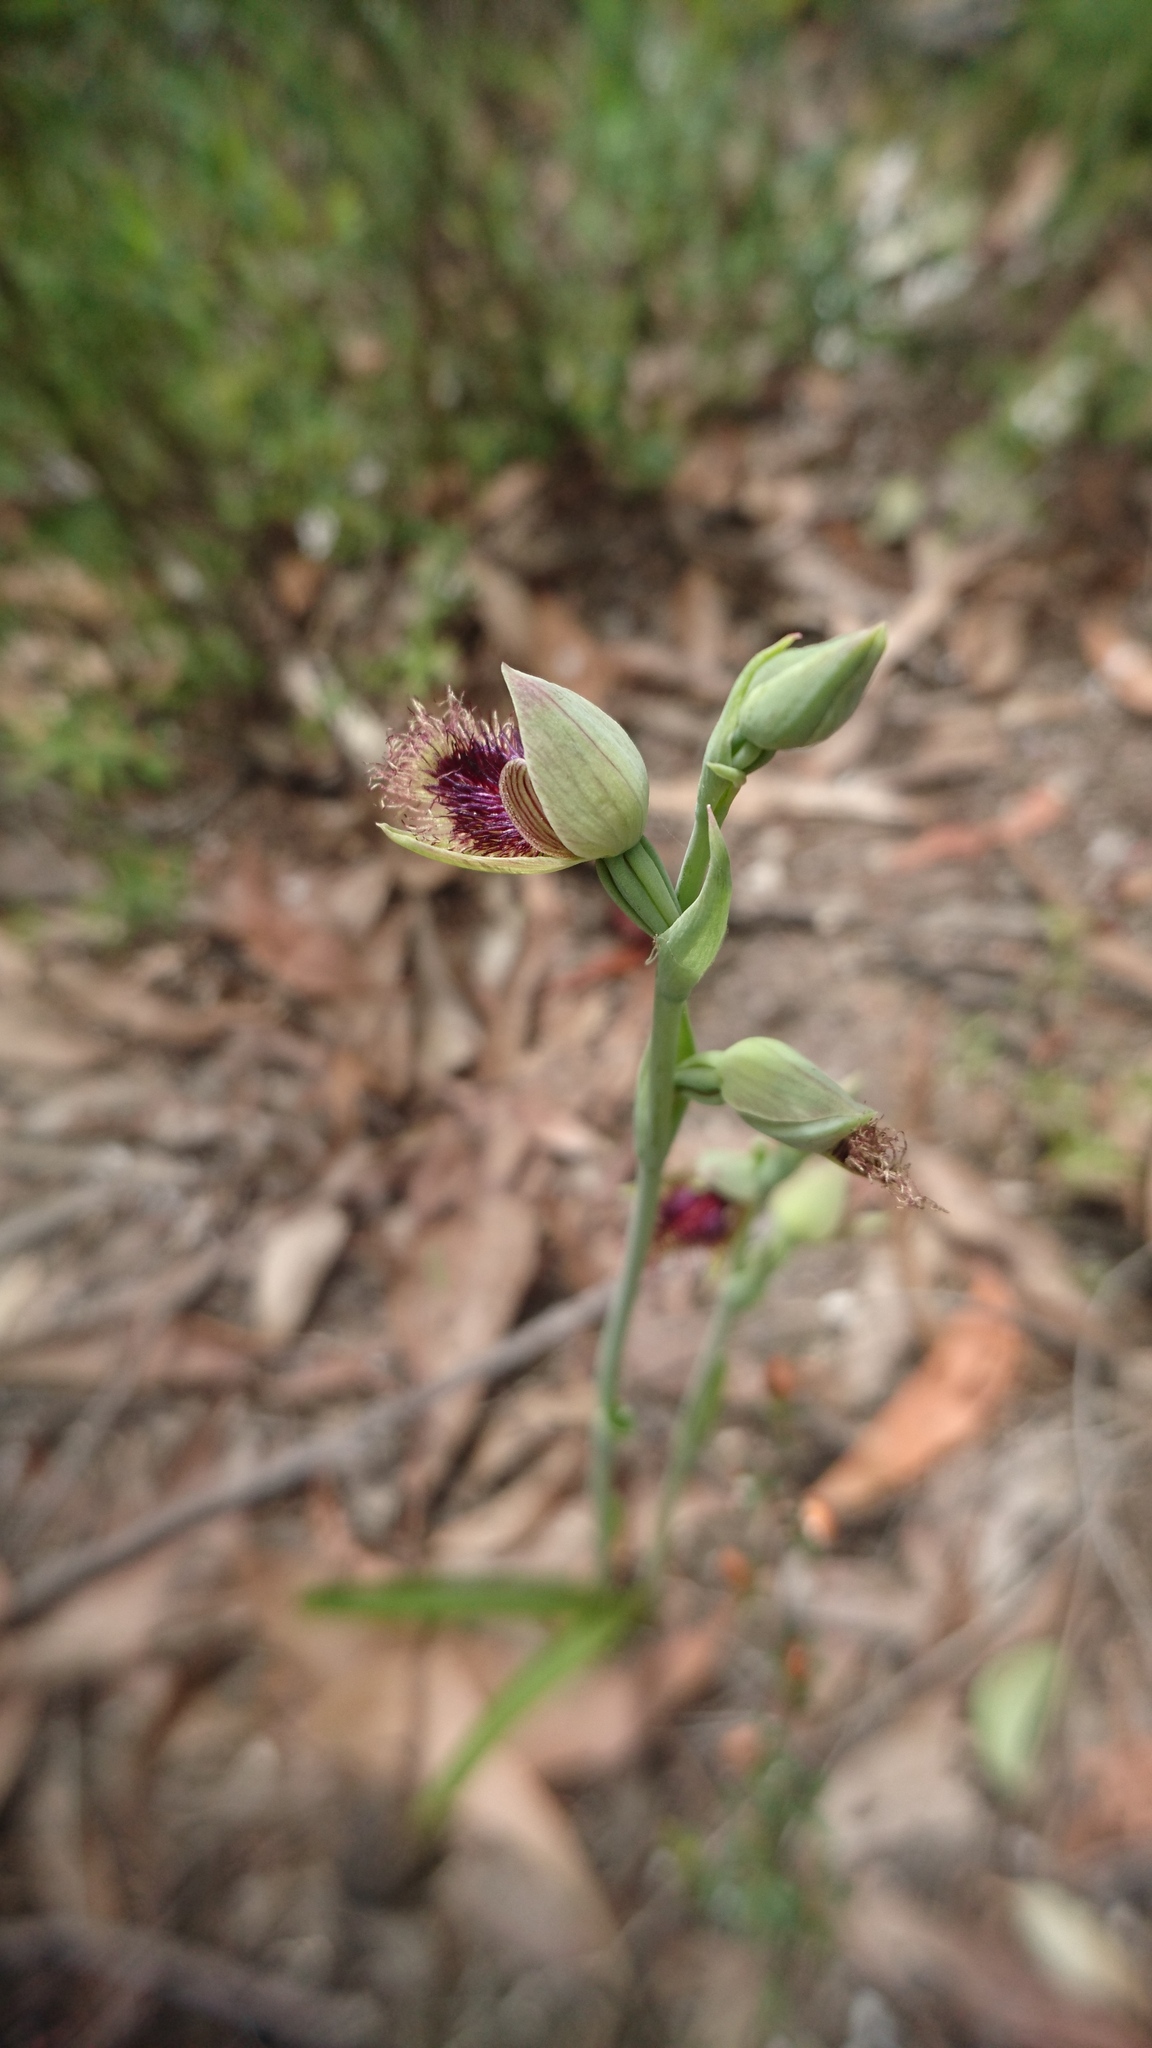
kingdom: Plantae
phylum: Tracheophyta
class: Liliopsida
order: Asparagales
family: Orchidaceae
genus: Calochilus
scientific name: Calochilus robertsonii
